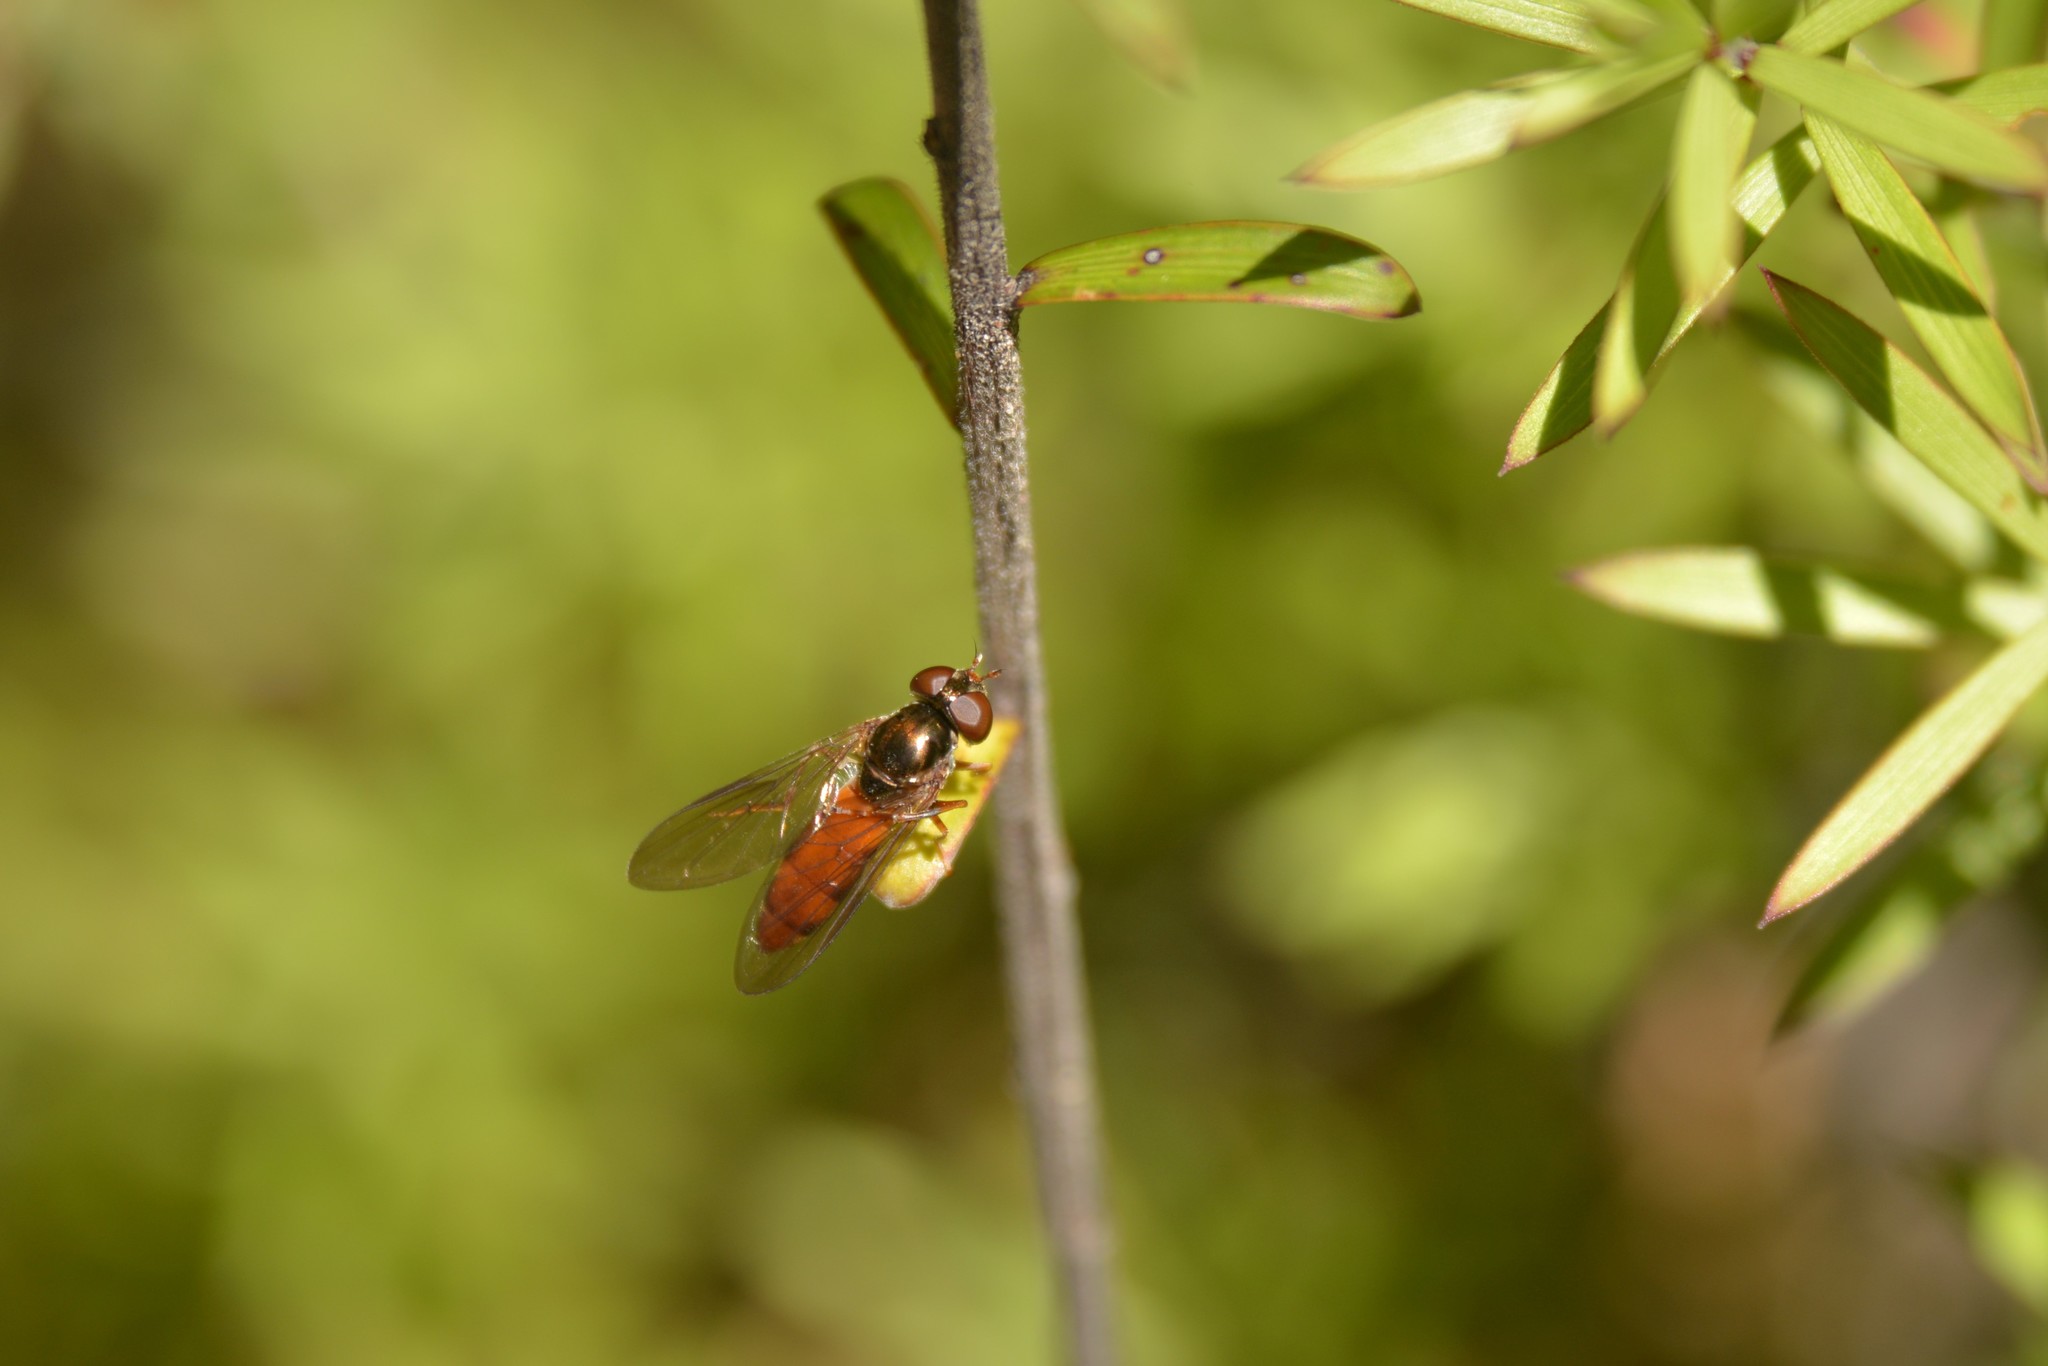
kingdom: Animalia
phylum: Arthropoda
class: Insecta
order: Diptera
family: Syrphidae
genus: Melanostoma
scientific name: Melanostoma fasciatum
